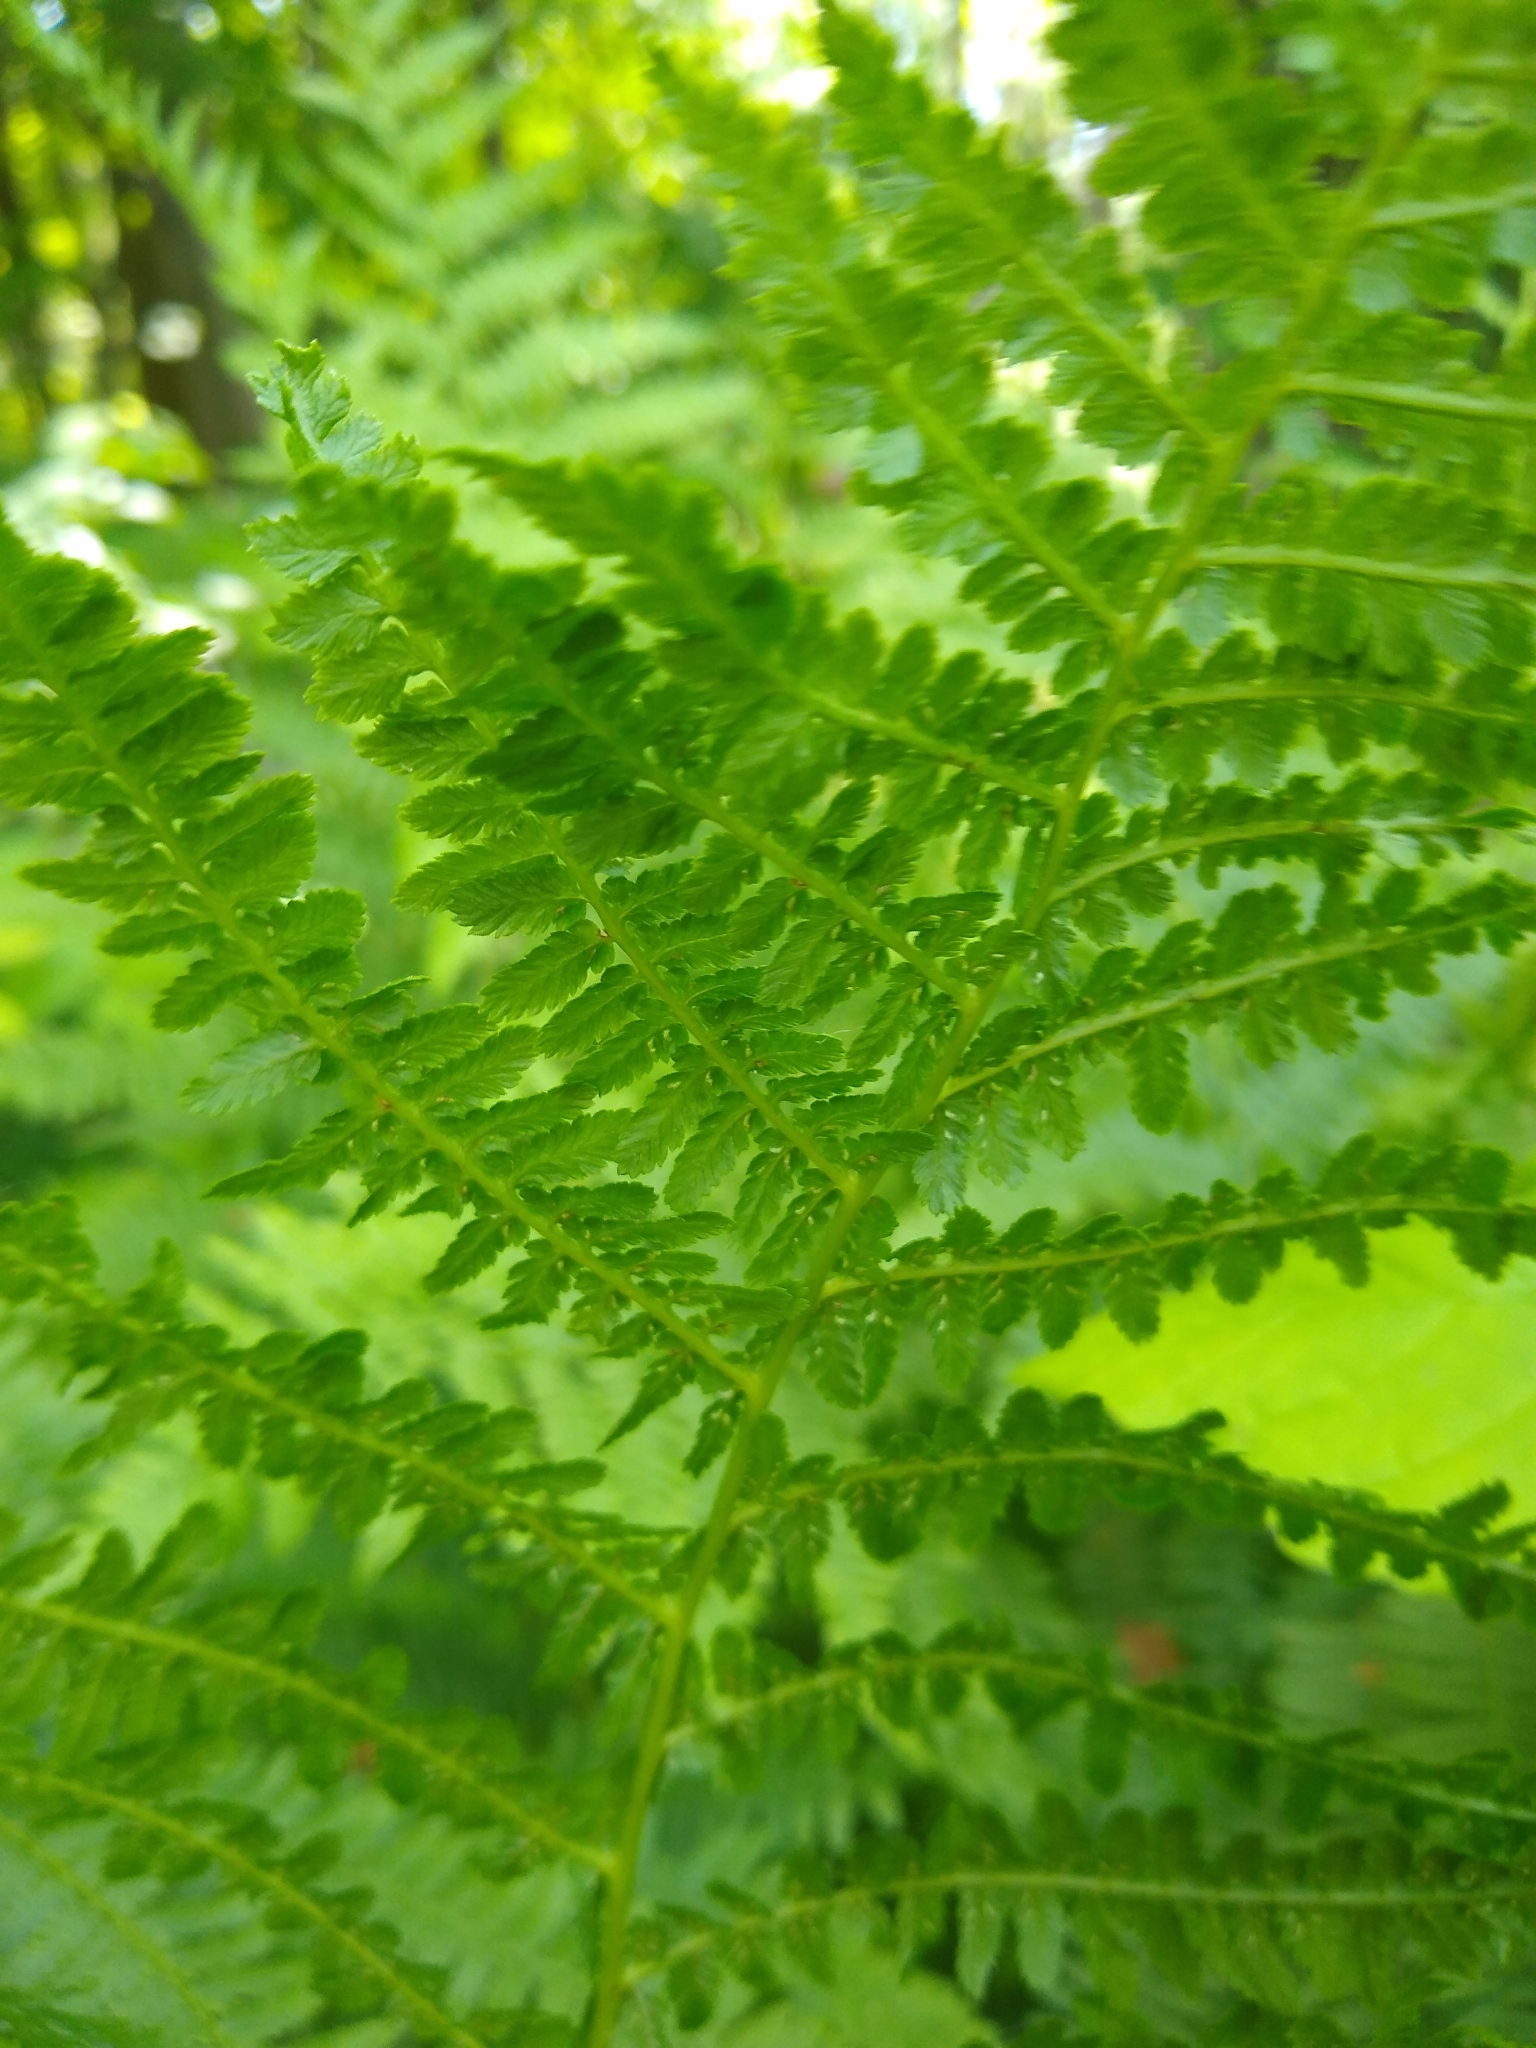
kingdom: Plantae
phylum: Tracheophyta
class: Polypodiopsida
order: Polypodiales
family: Athyriaceae
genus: Athyrium
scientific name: Athyrium angustum
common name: Northern lady fern
